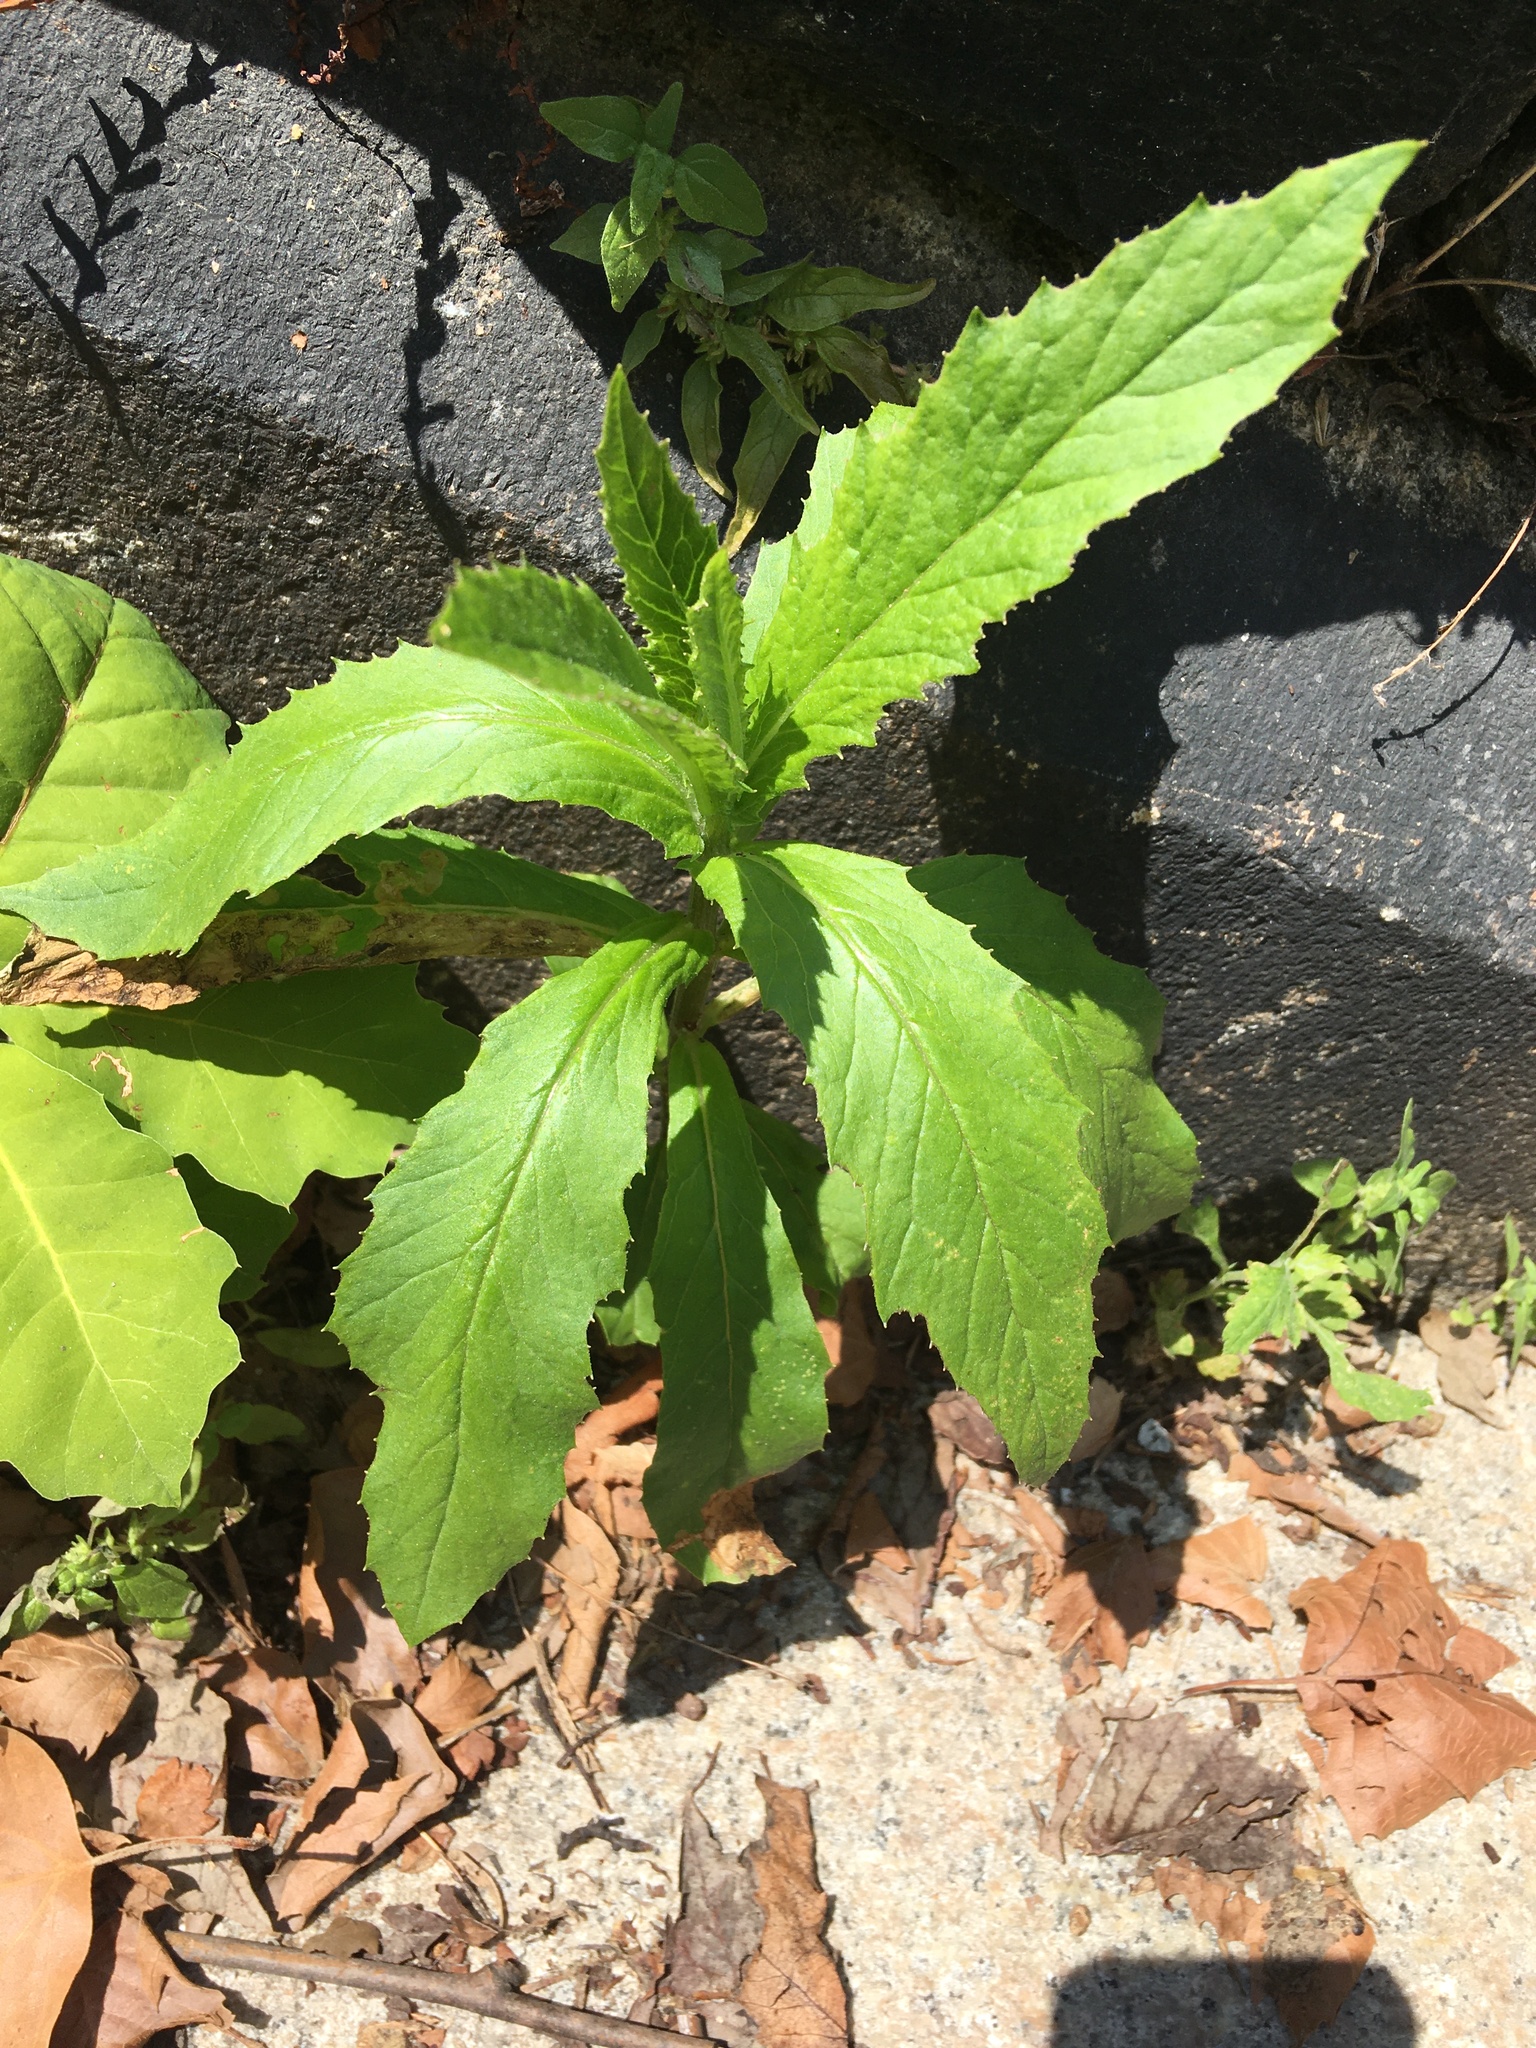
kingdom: Plantae
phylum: Tracheophyta
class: Magnoliopsida
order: Asterales
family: Asteraceae
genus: Erechtites
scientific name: Erechtites hieraciifolius
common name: American burnweed
